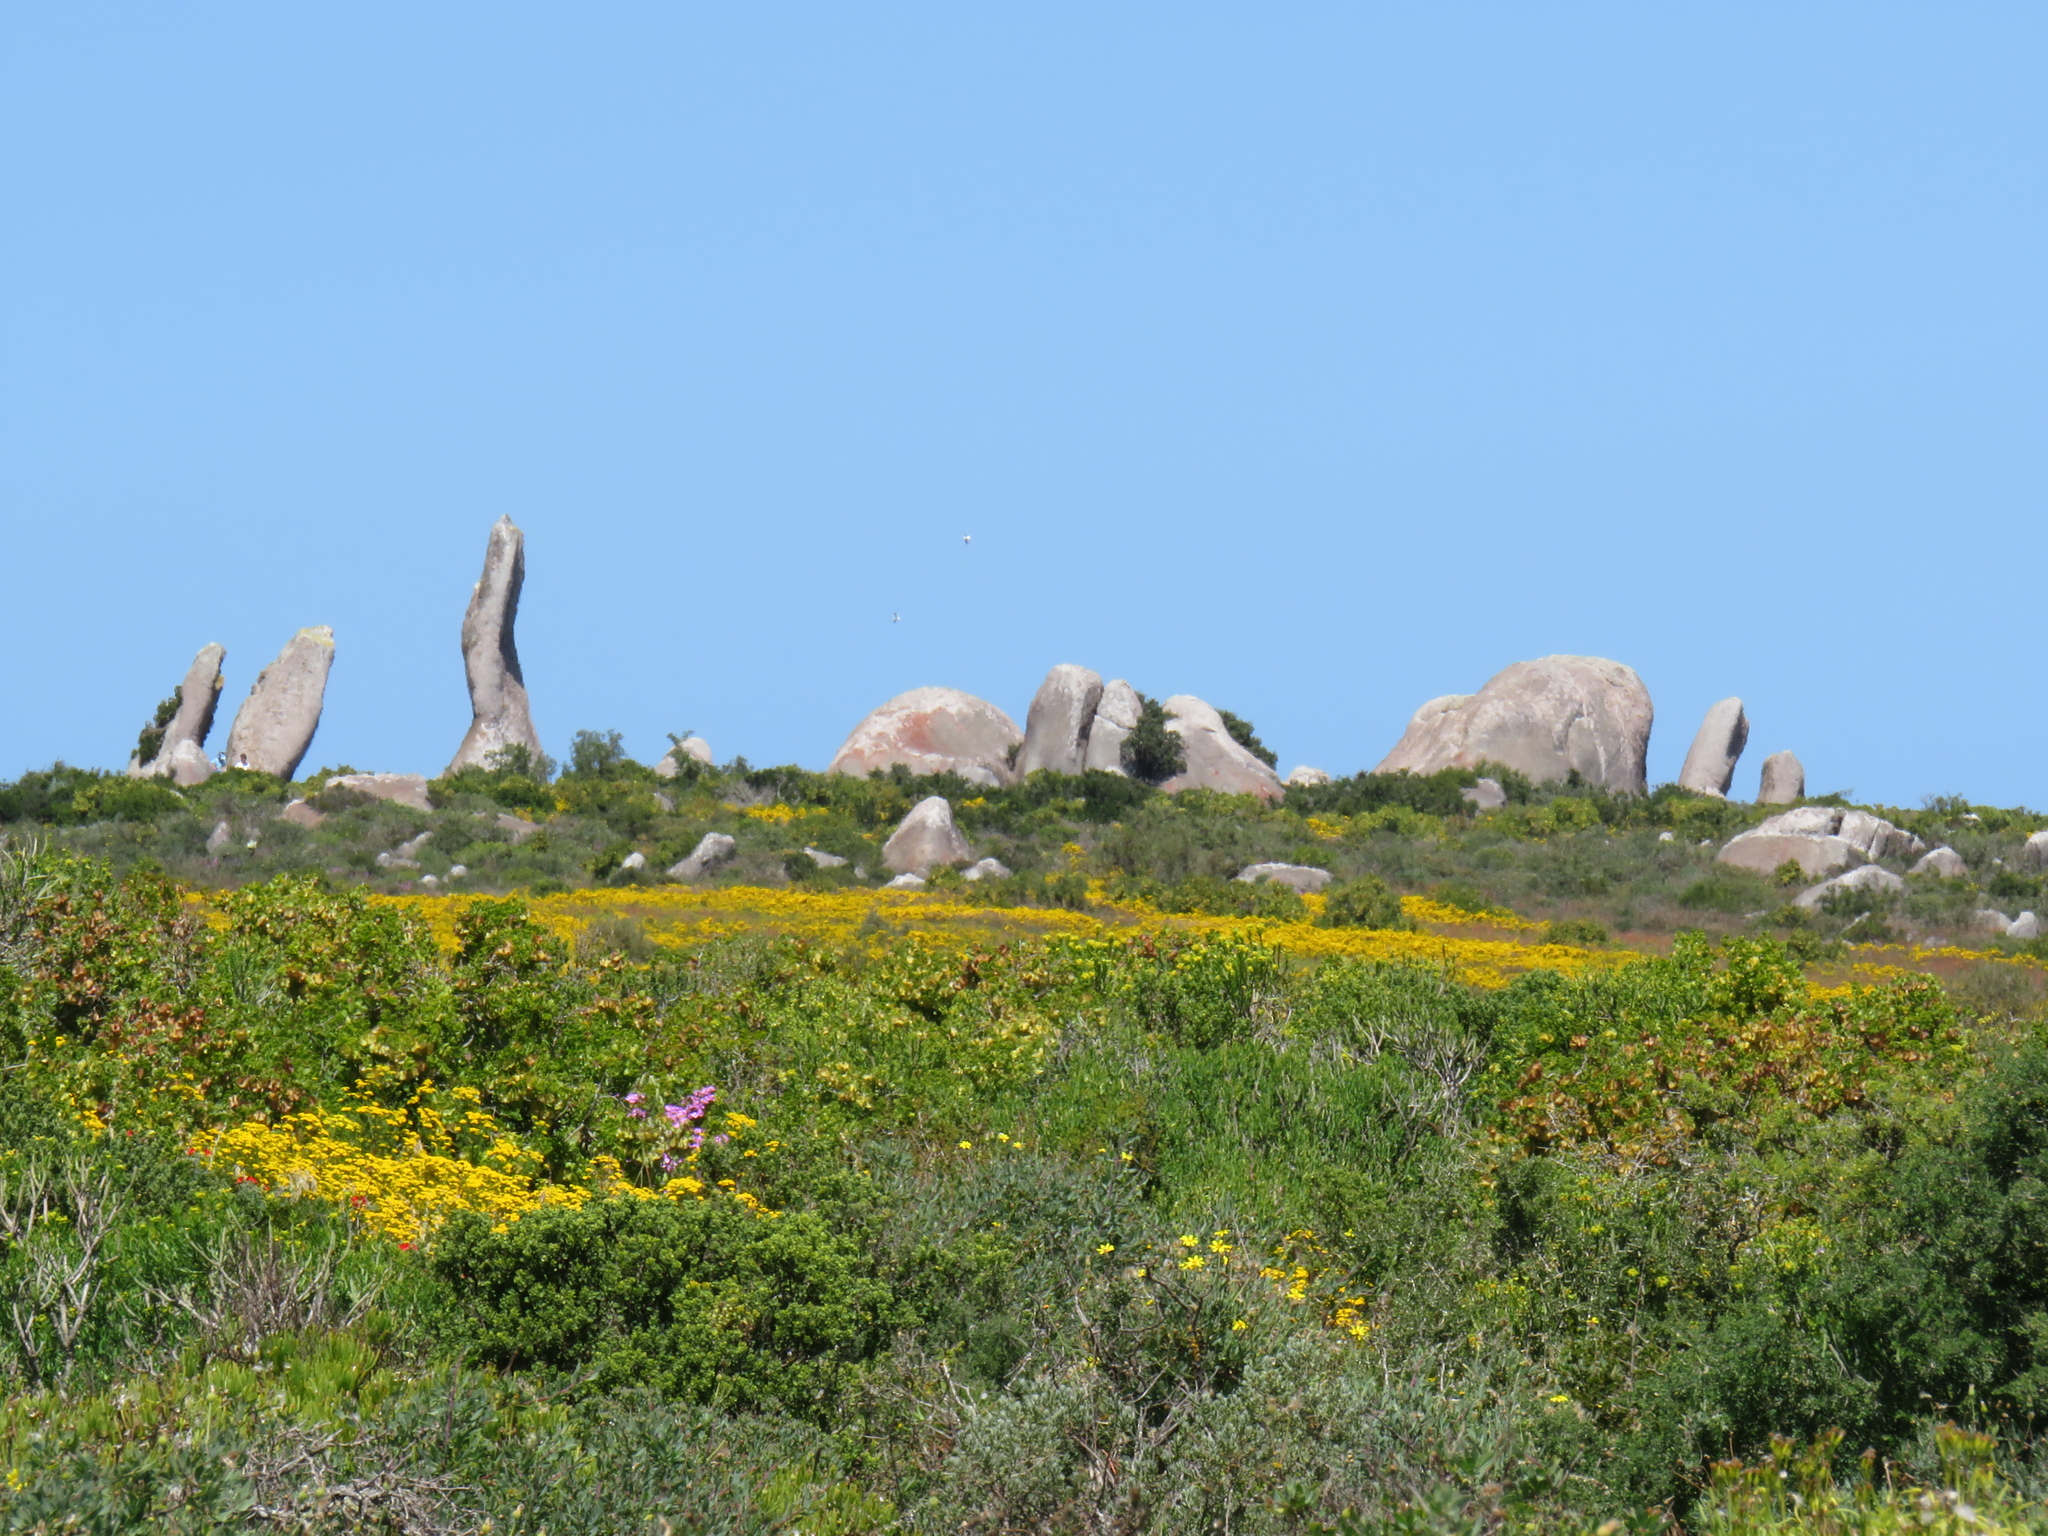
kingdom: Plantae
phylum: Tracheophyta
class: Magnoliopsida
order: Asterales
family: Asteraceae
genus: Oncosiphon
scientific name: Oncosiphon suffruticosus
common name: Shrubby mayweed
